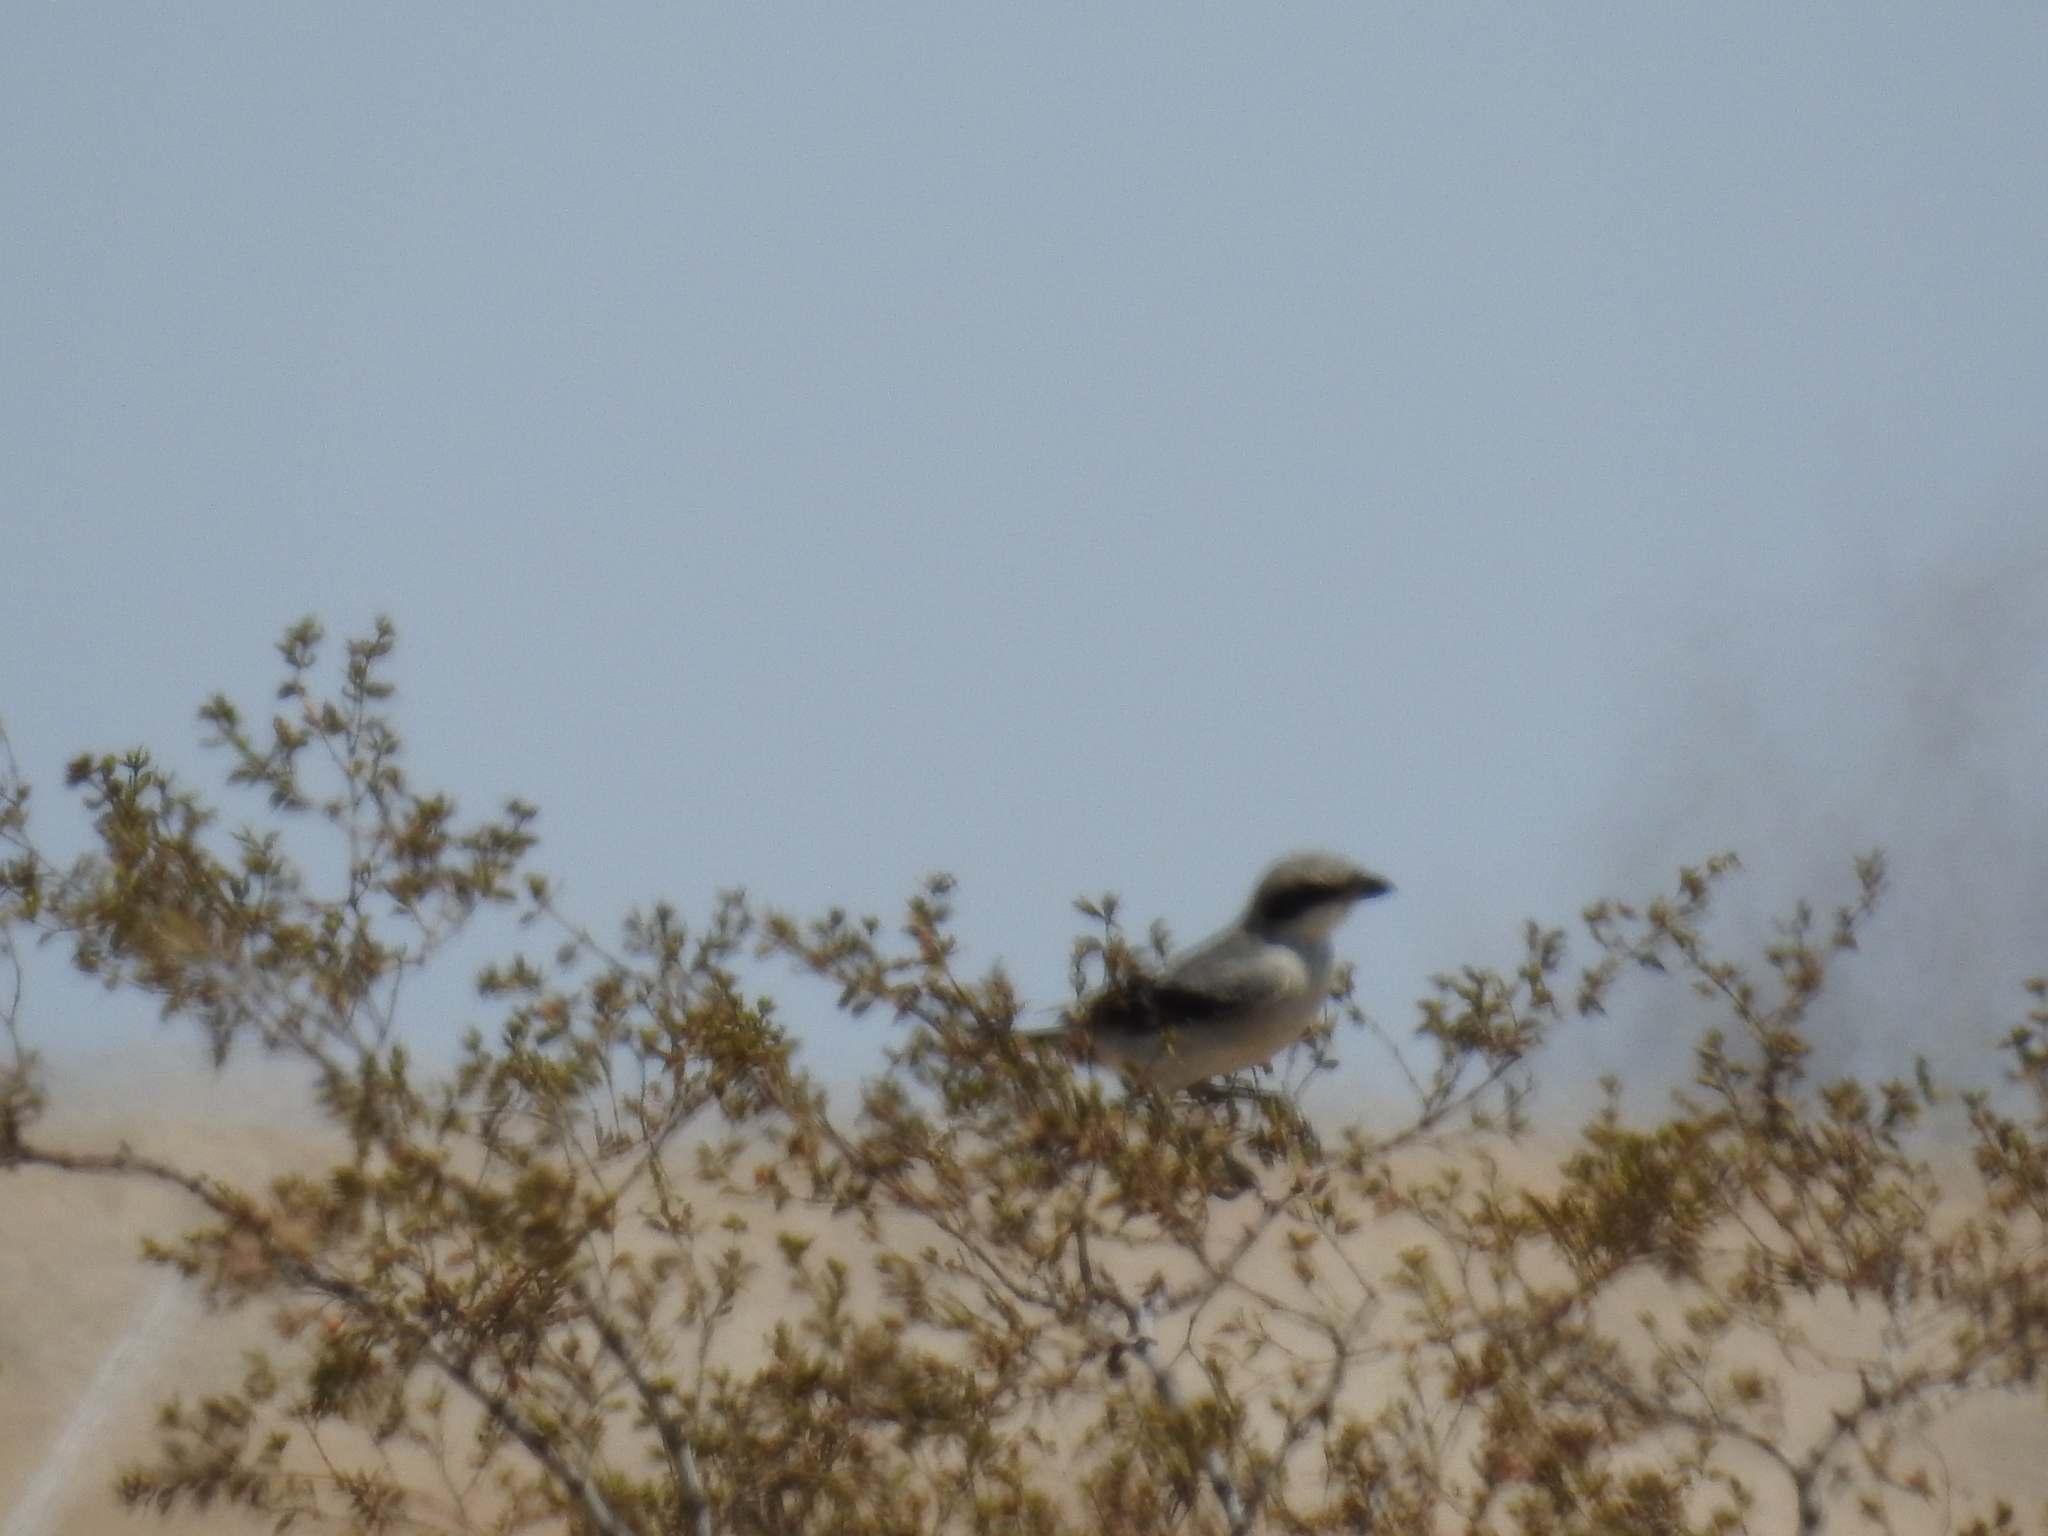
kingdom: Animalia
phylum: Chordata
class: Aves
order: Passeriformes
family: Laniidae
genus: Lanius
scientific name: Lanius ludovicianus
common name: Loggerhead shrike
